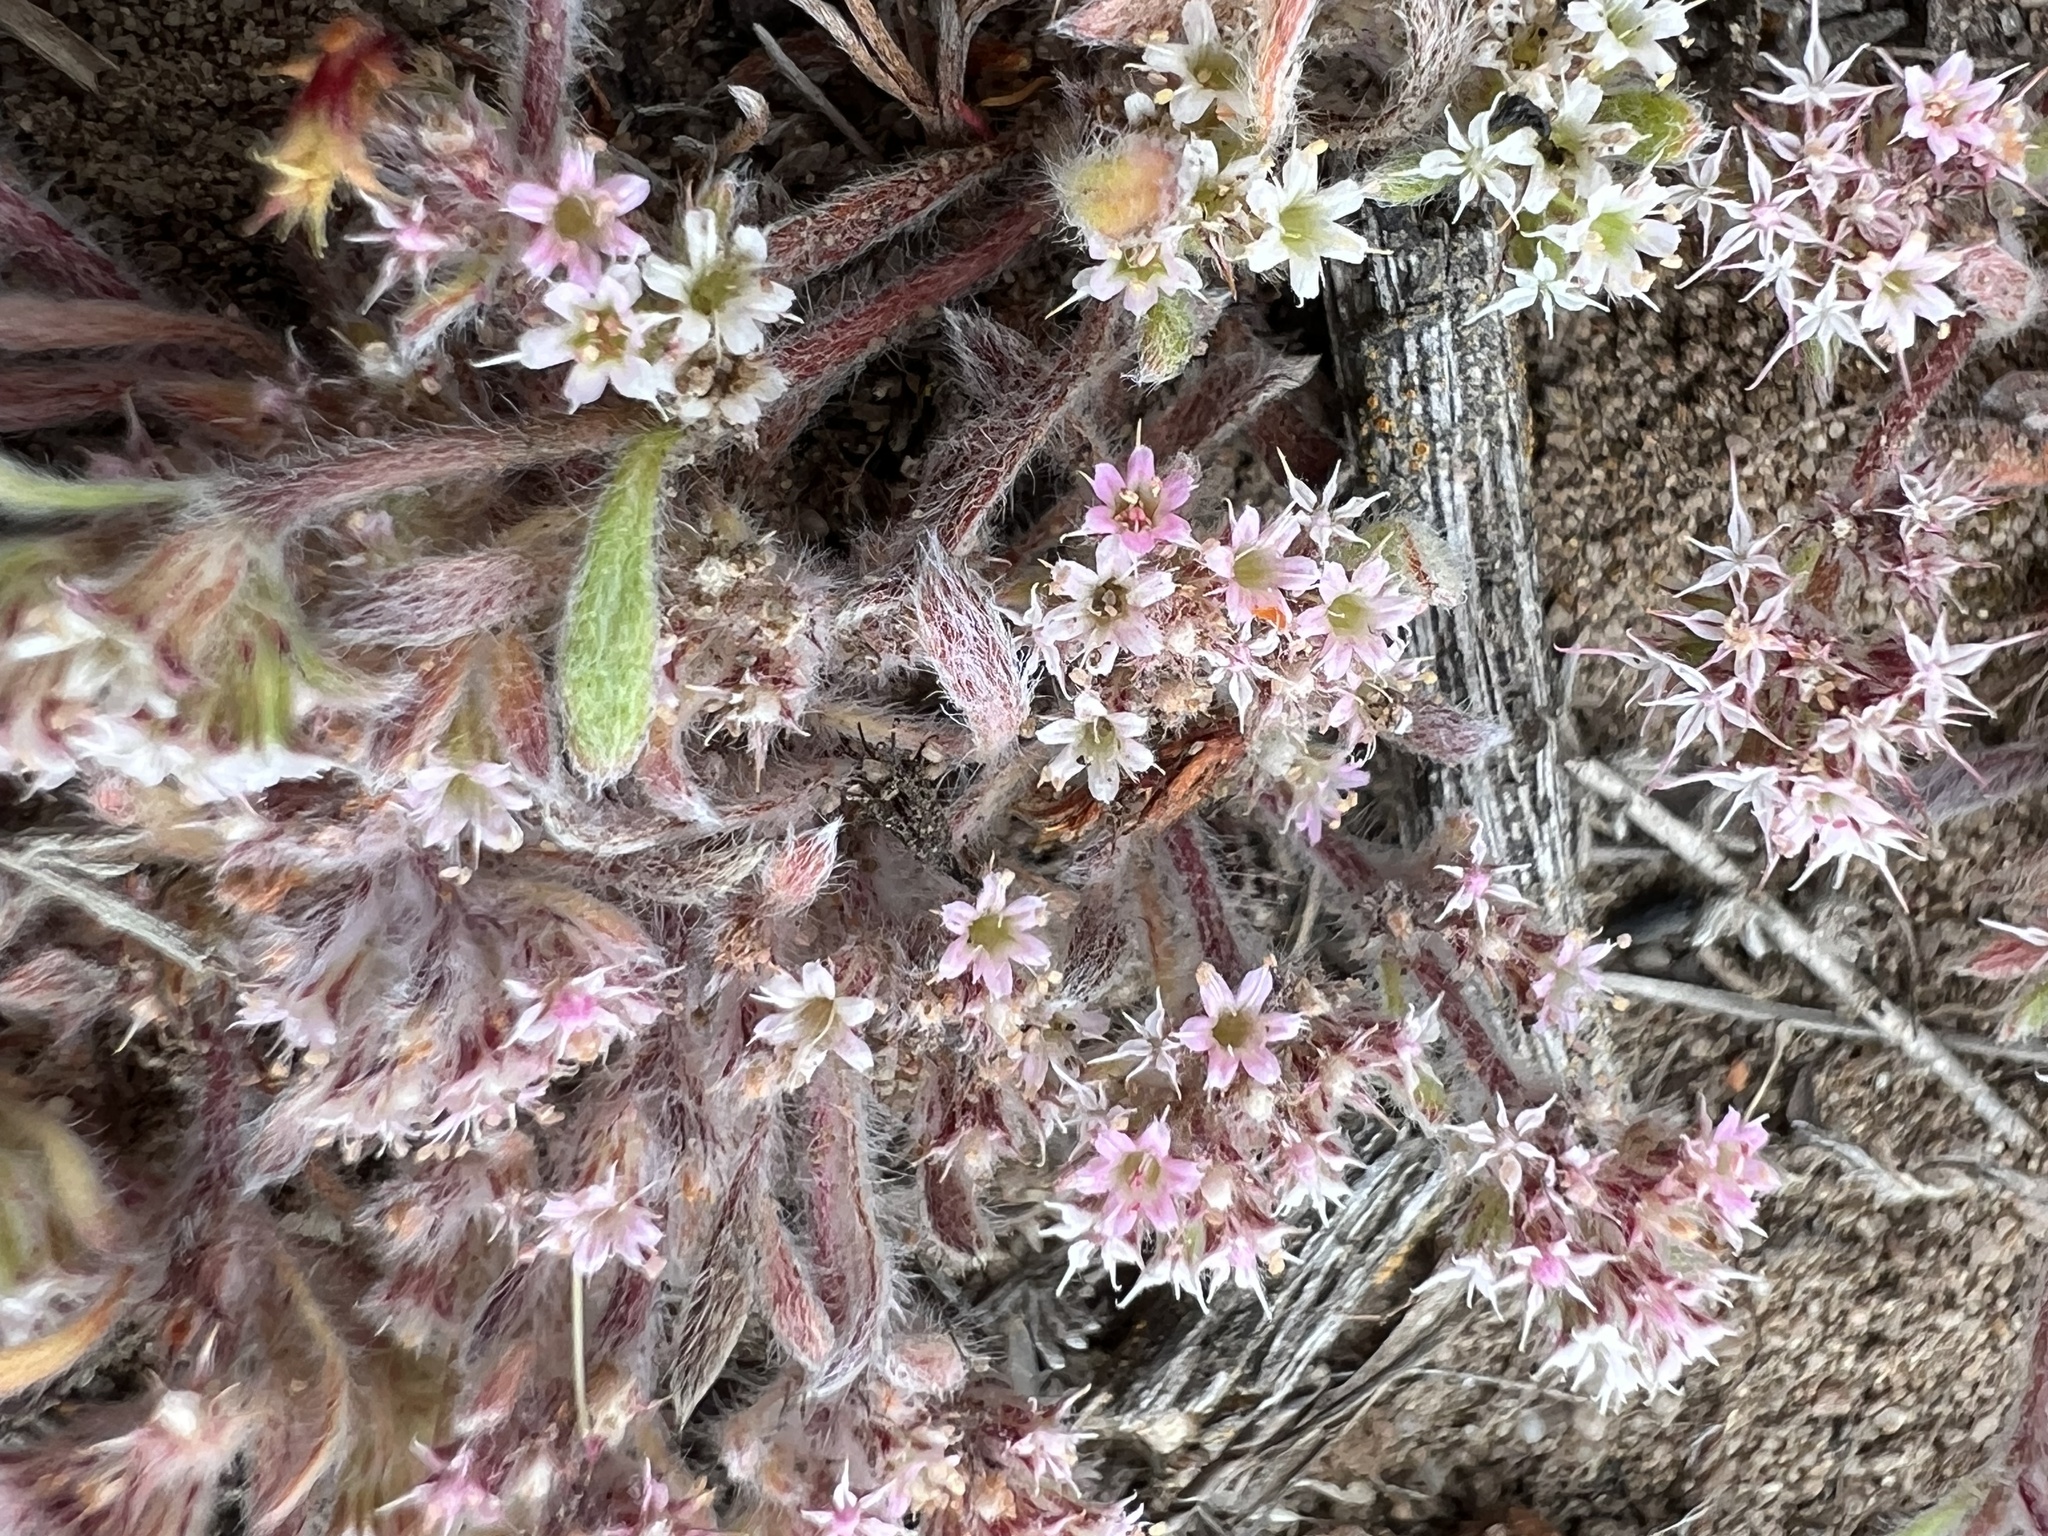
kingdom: Plantae
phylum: Tracheophyta
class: Magnoliopsida
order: Caryophyllales
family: Polygonaceae
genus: Chorizanthe
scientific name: Chorizanthe pungens
